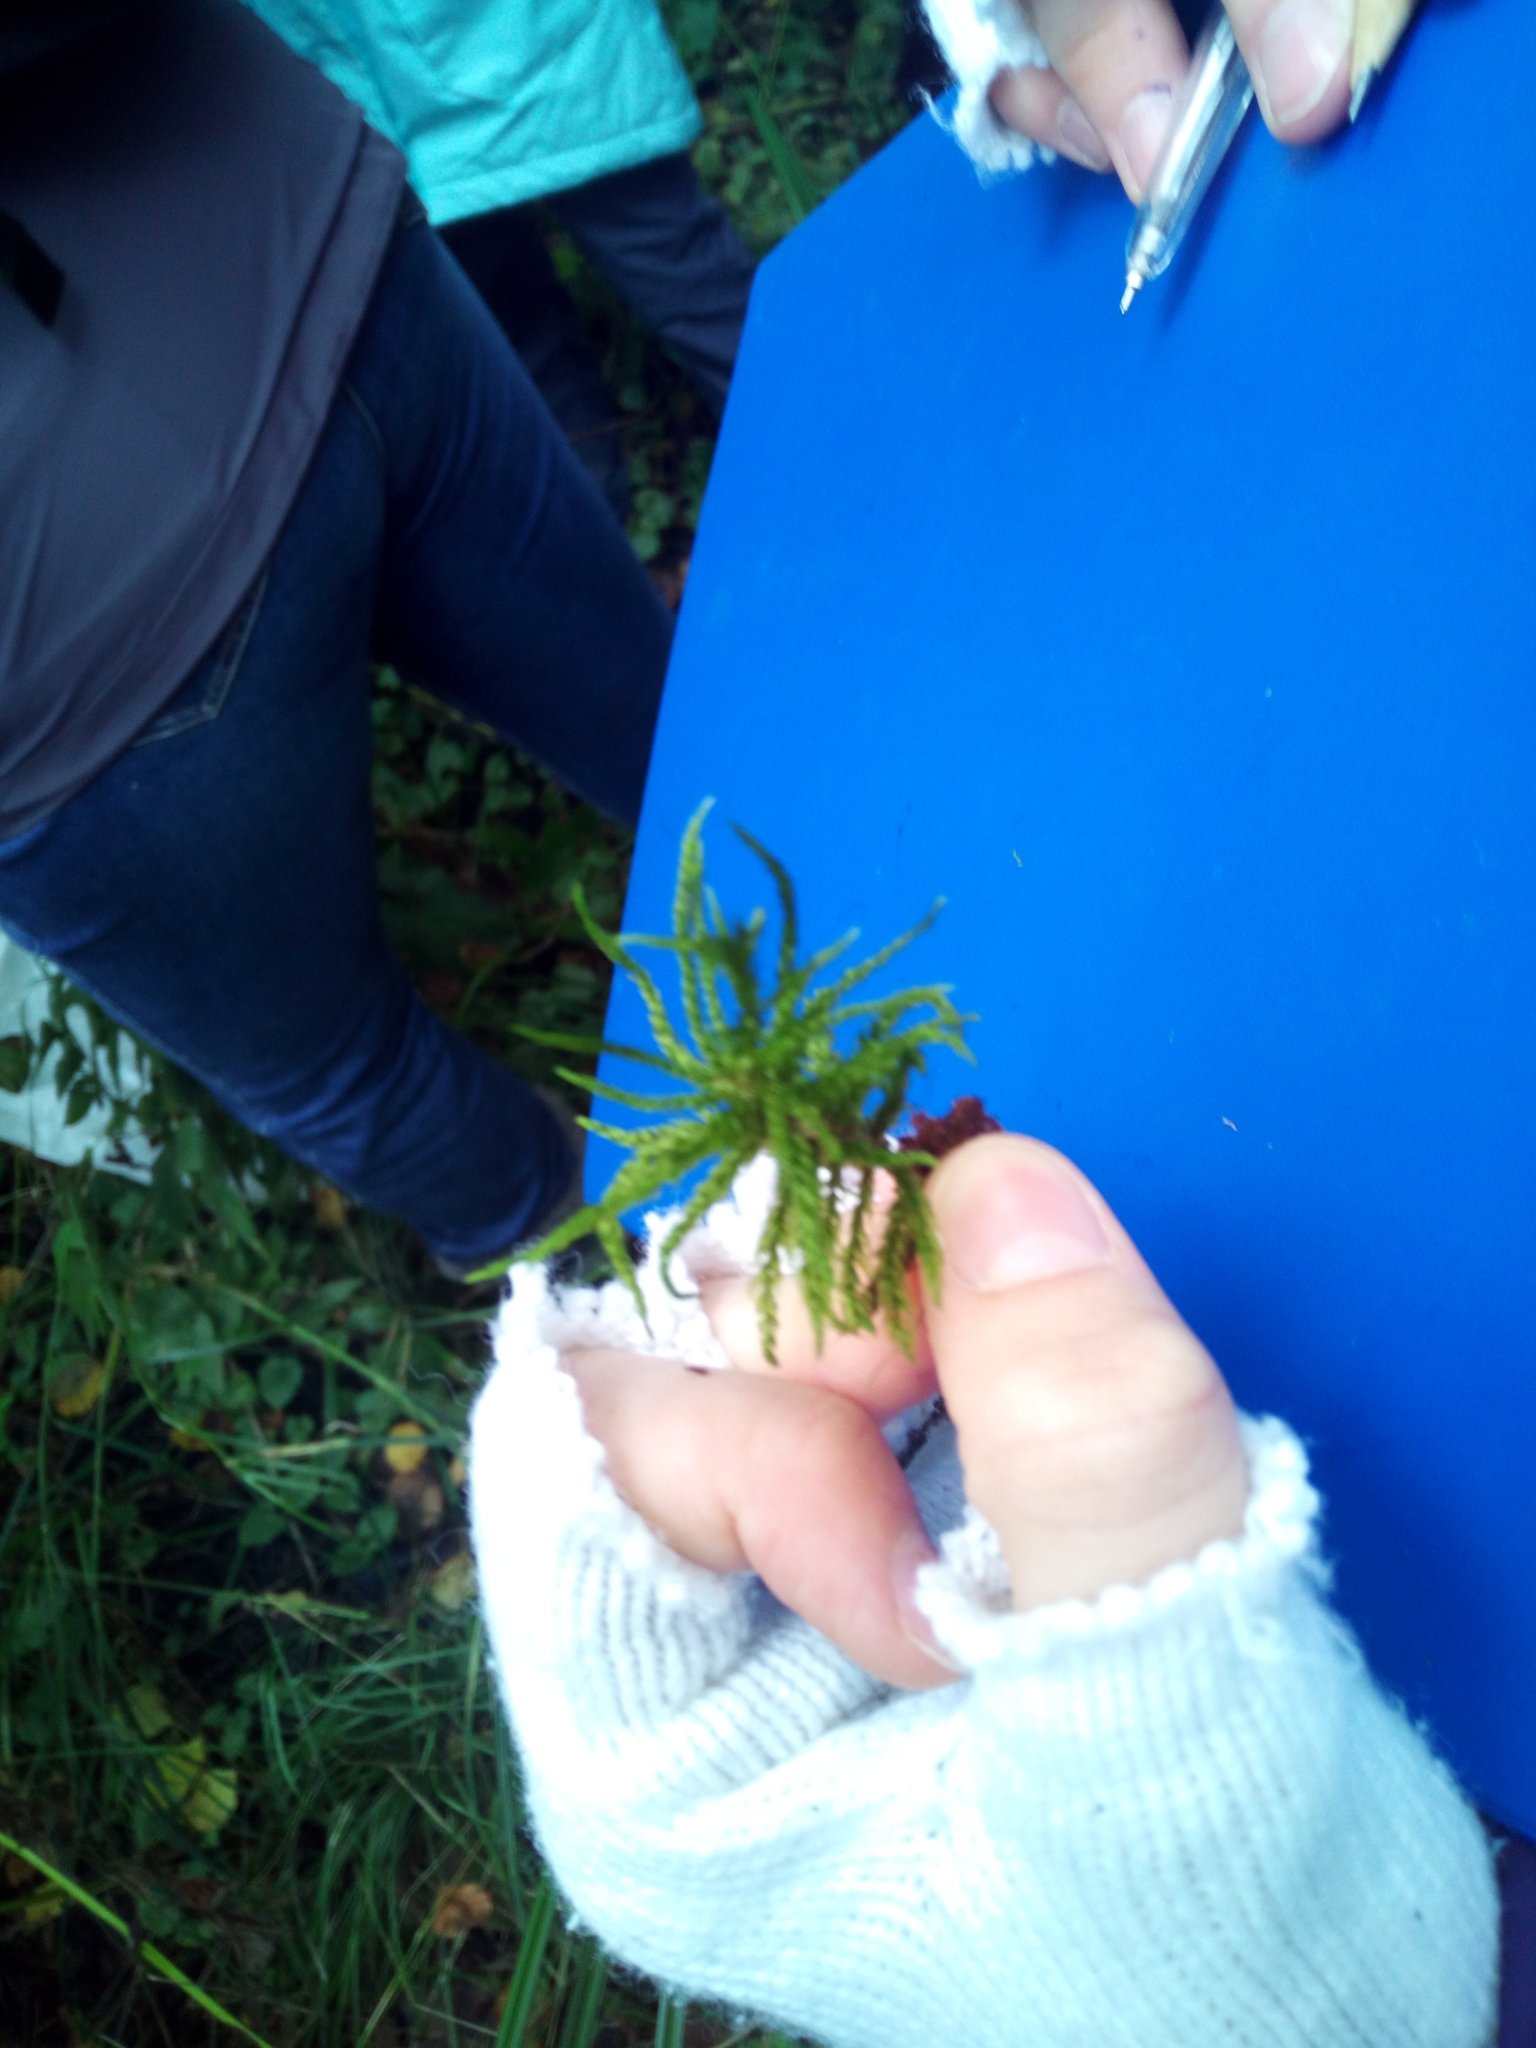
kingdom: Plantae
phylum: Bryophyta
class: Bryopsida
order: Hypnales
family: Climaciaceae
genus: Climacium
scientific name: Climacium dendroides
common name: Northern tree moss
